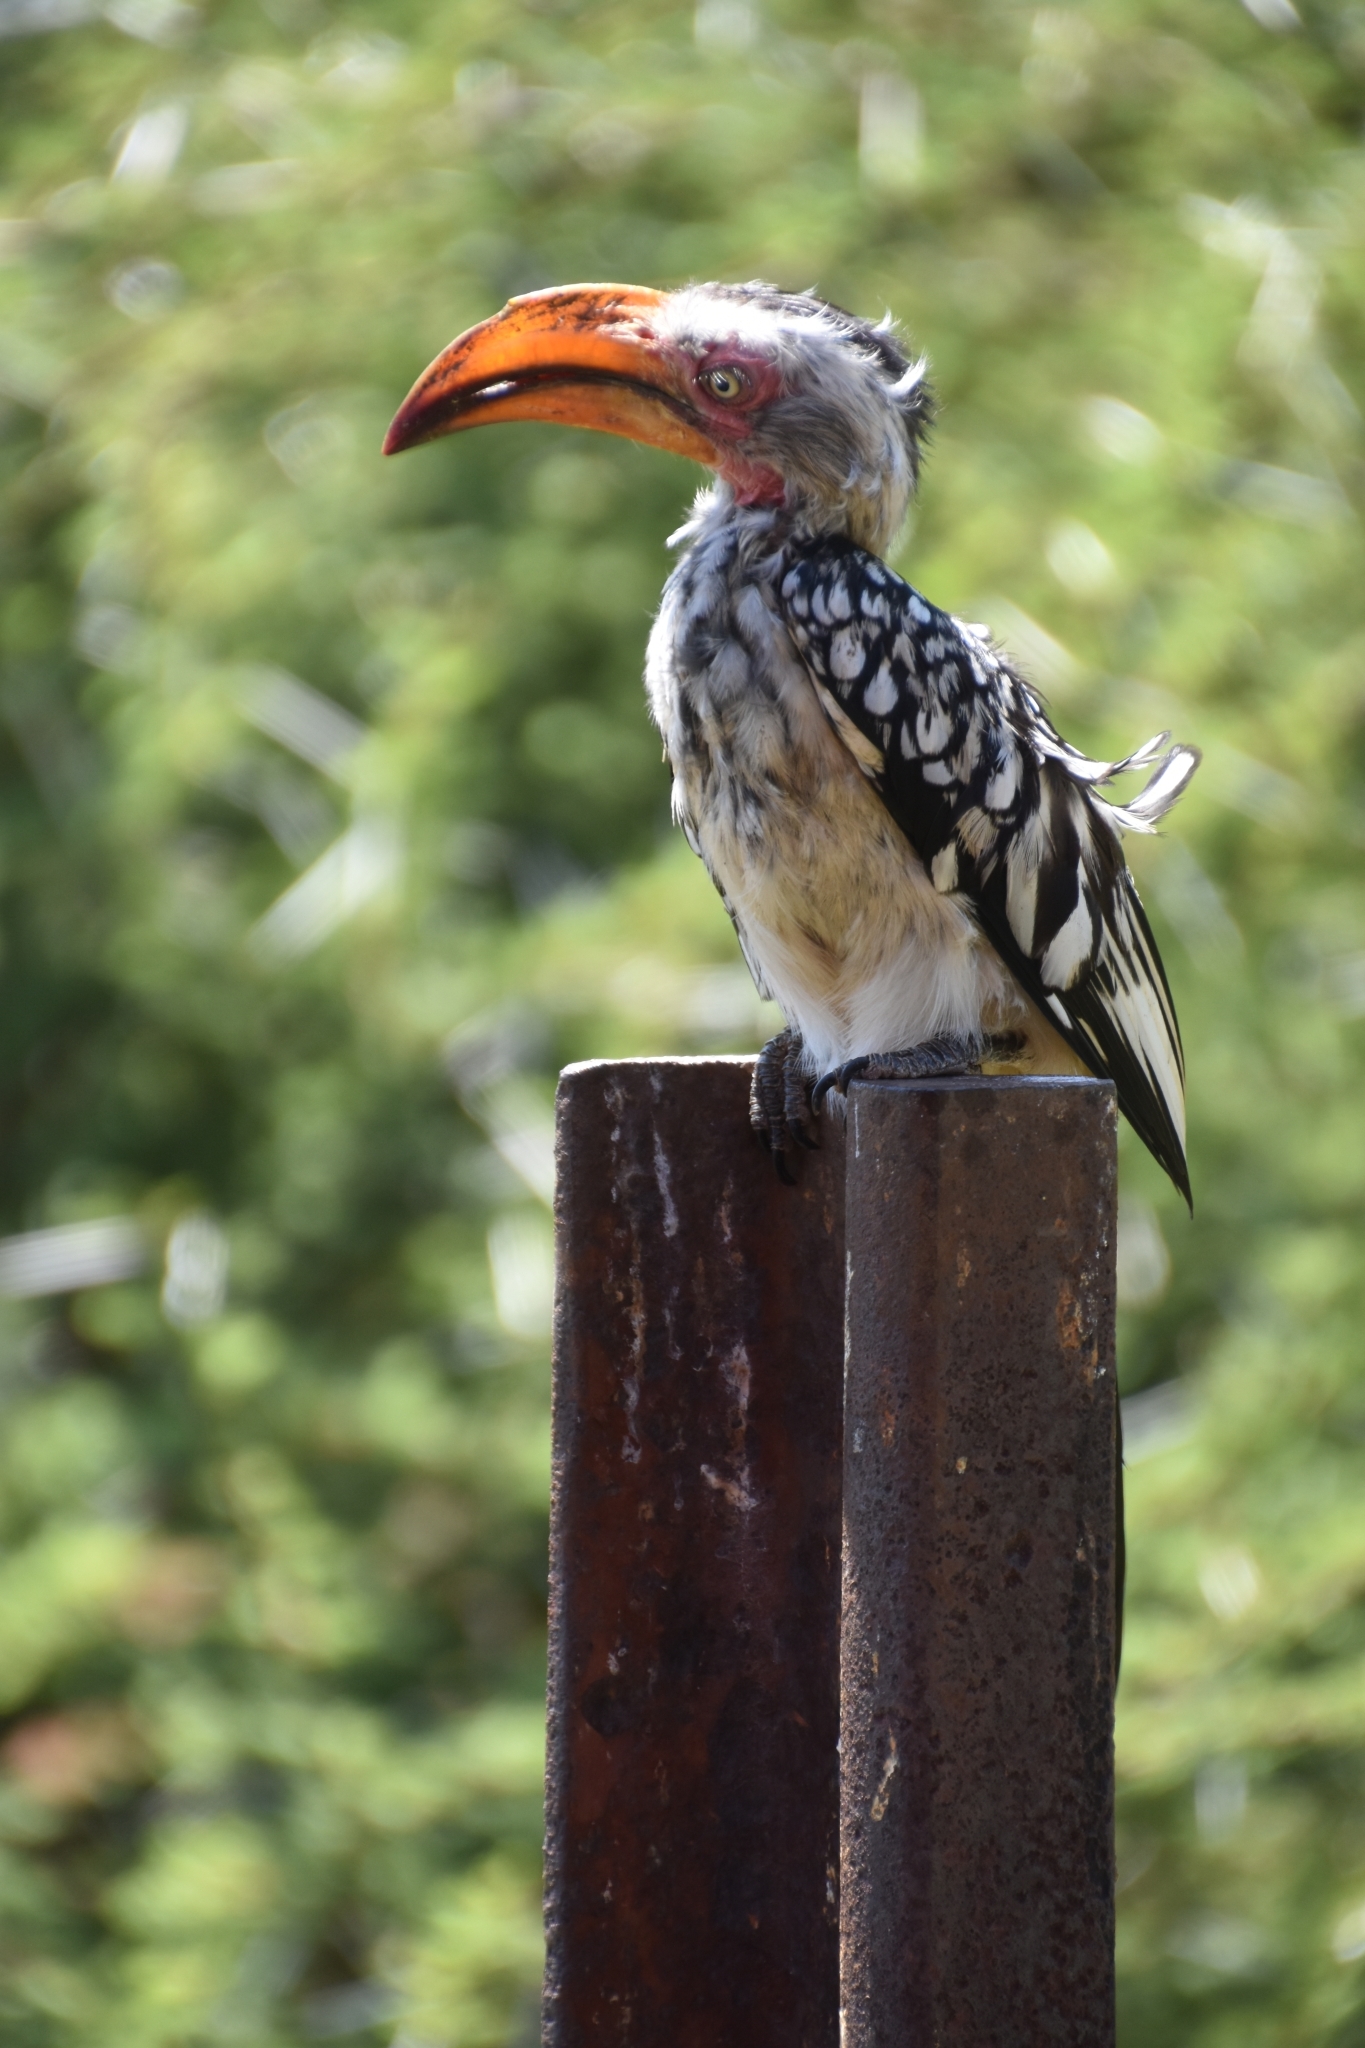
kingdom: Animalia
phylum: Chordata
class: Aves
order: Bucerotiformes
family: Bucerotidae
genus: Tockus
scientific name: Tockus leucomelas
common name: Southern yellow-billed hornbill
